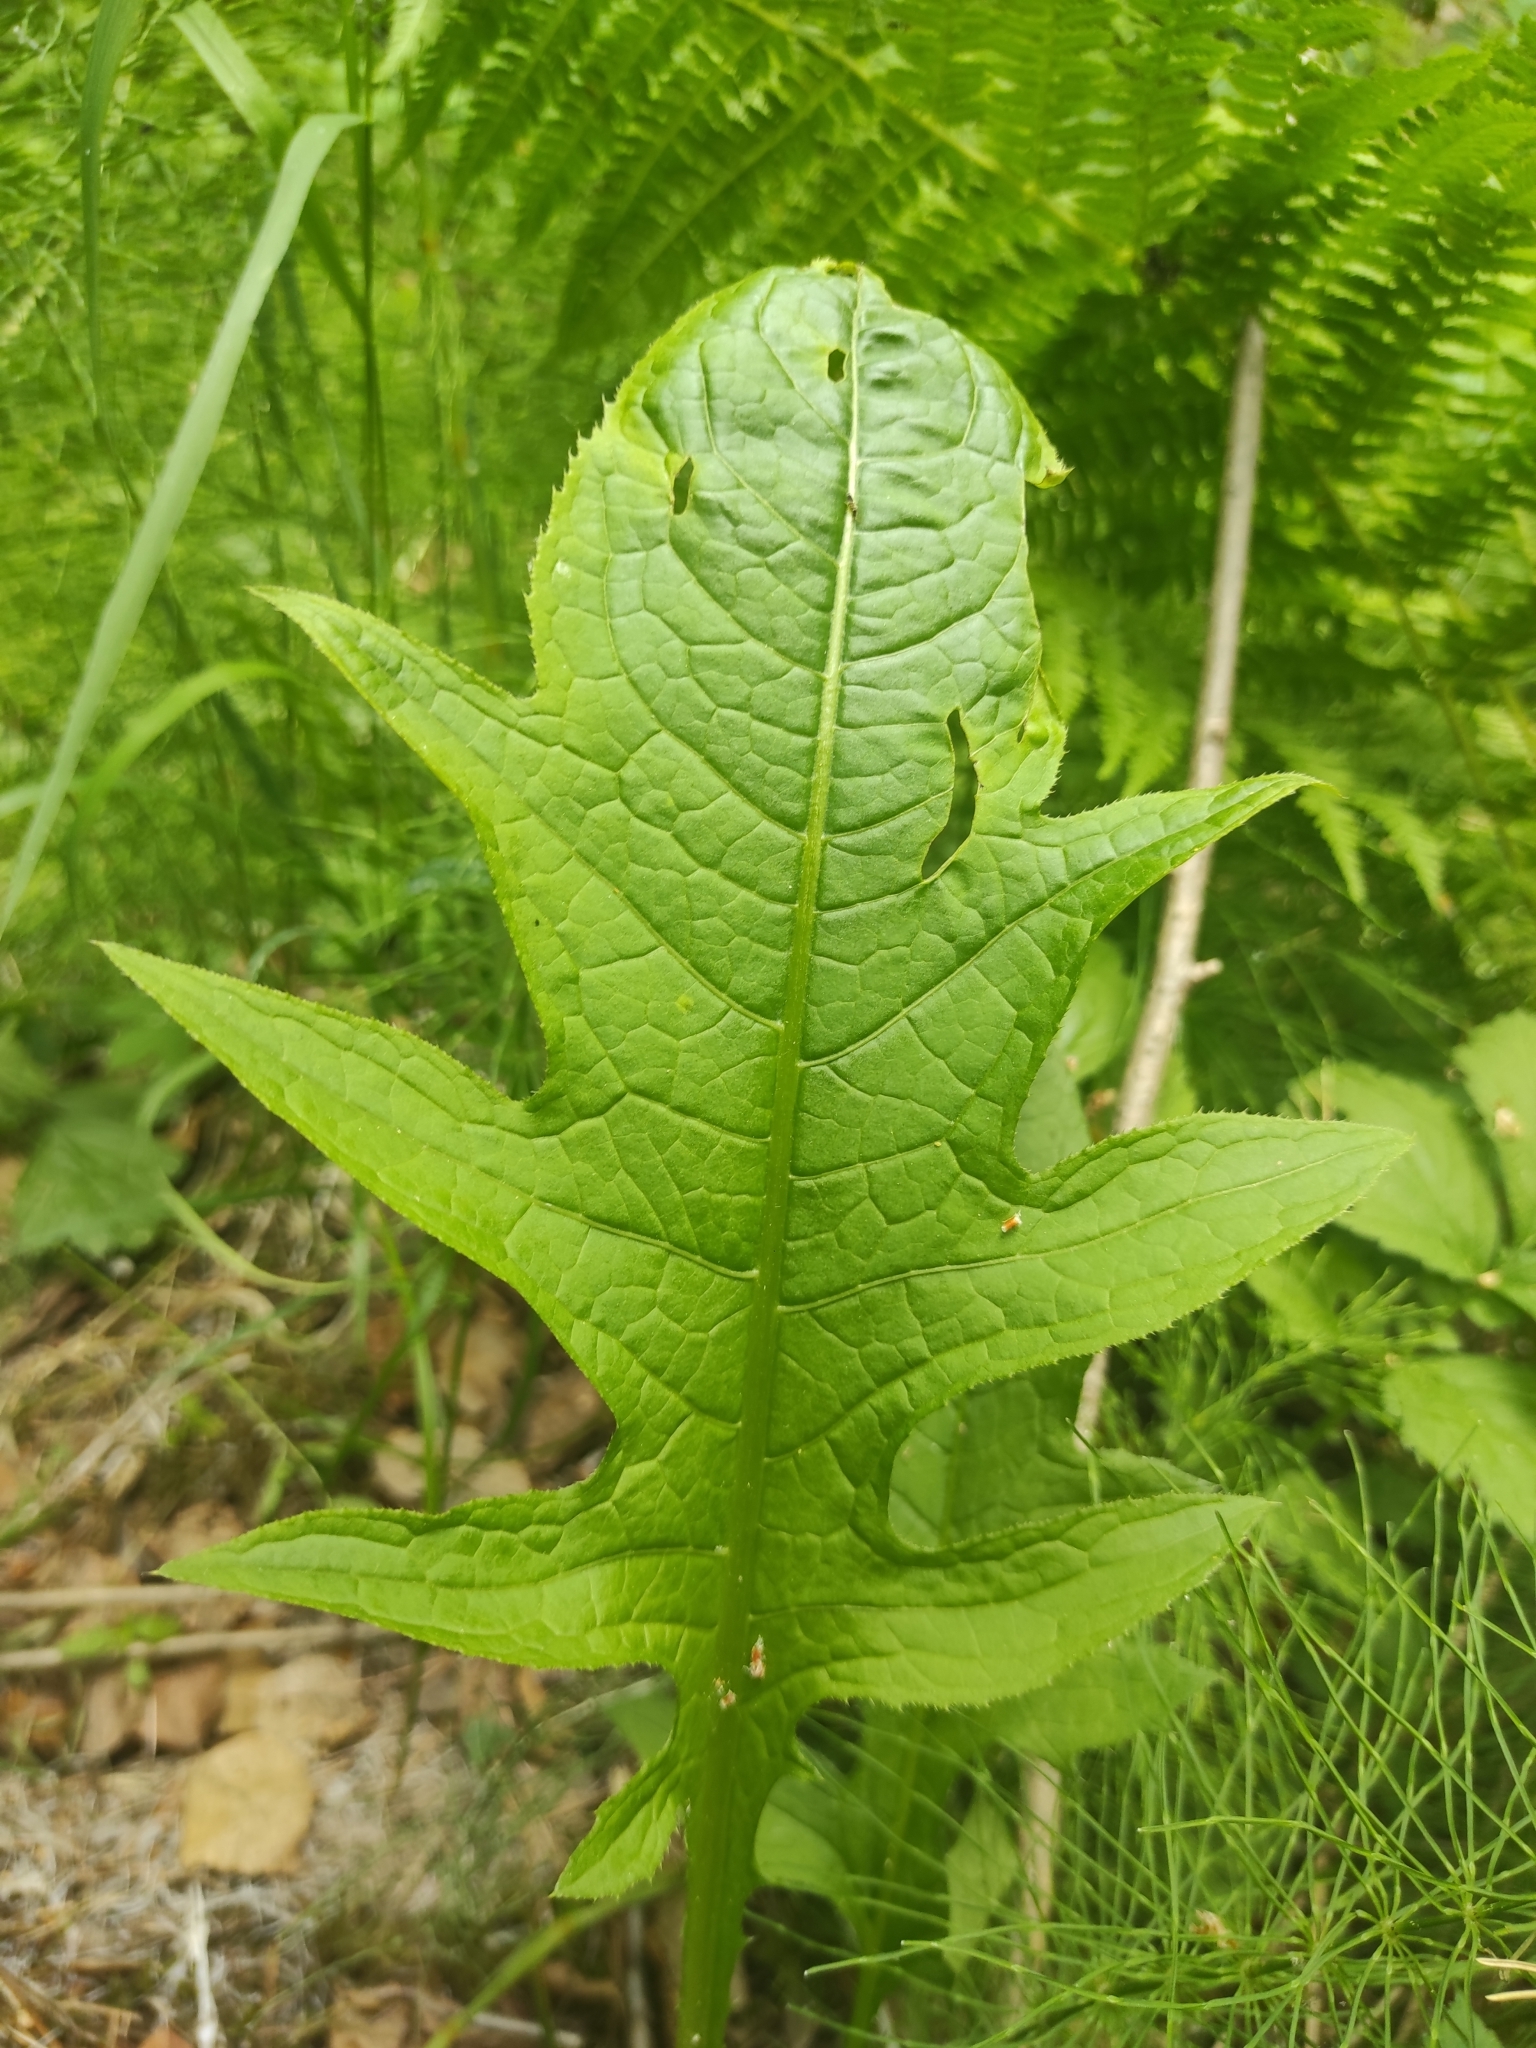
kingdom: Plantae
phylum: Tracheophyta
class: Magnoliopsida
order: Asterales
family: Asteraceae
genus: Cirsium
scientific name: Cirsium oleraceum
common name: Cabbage thistle
